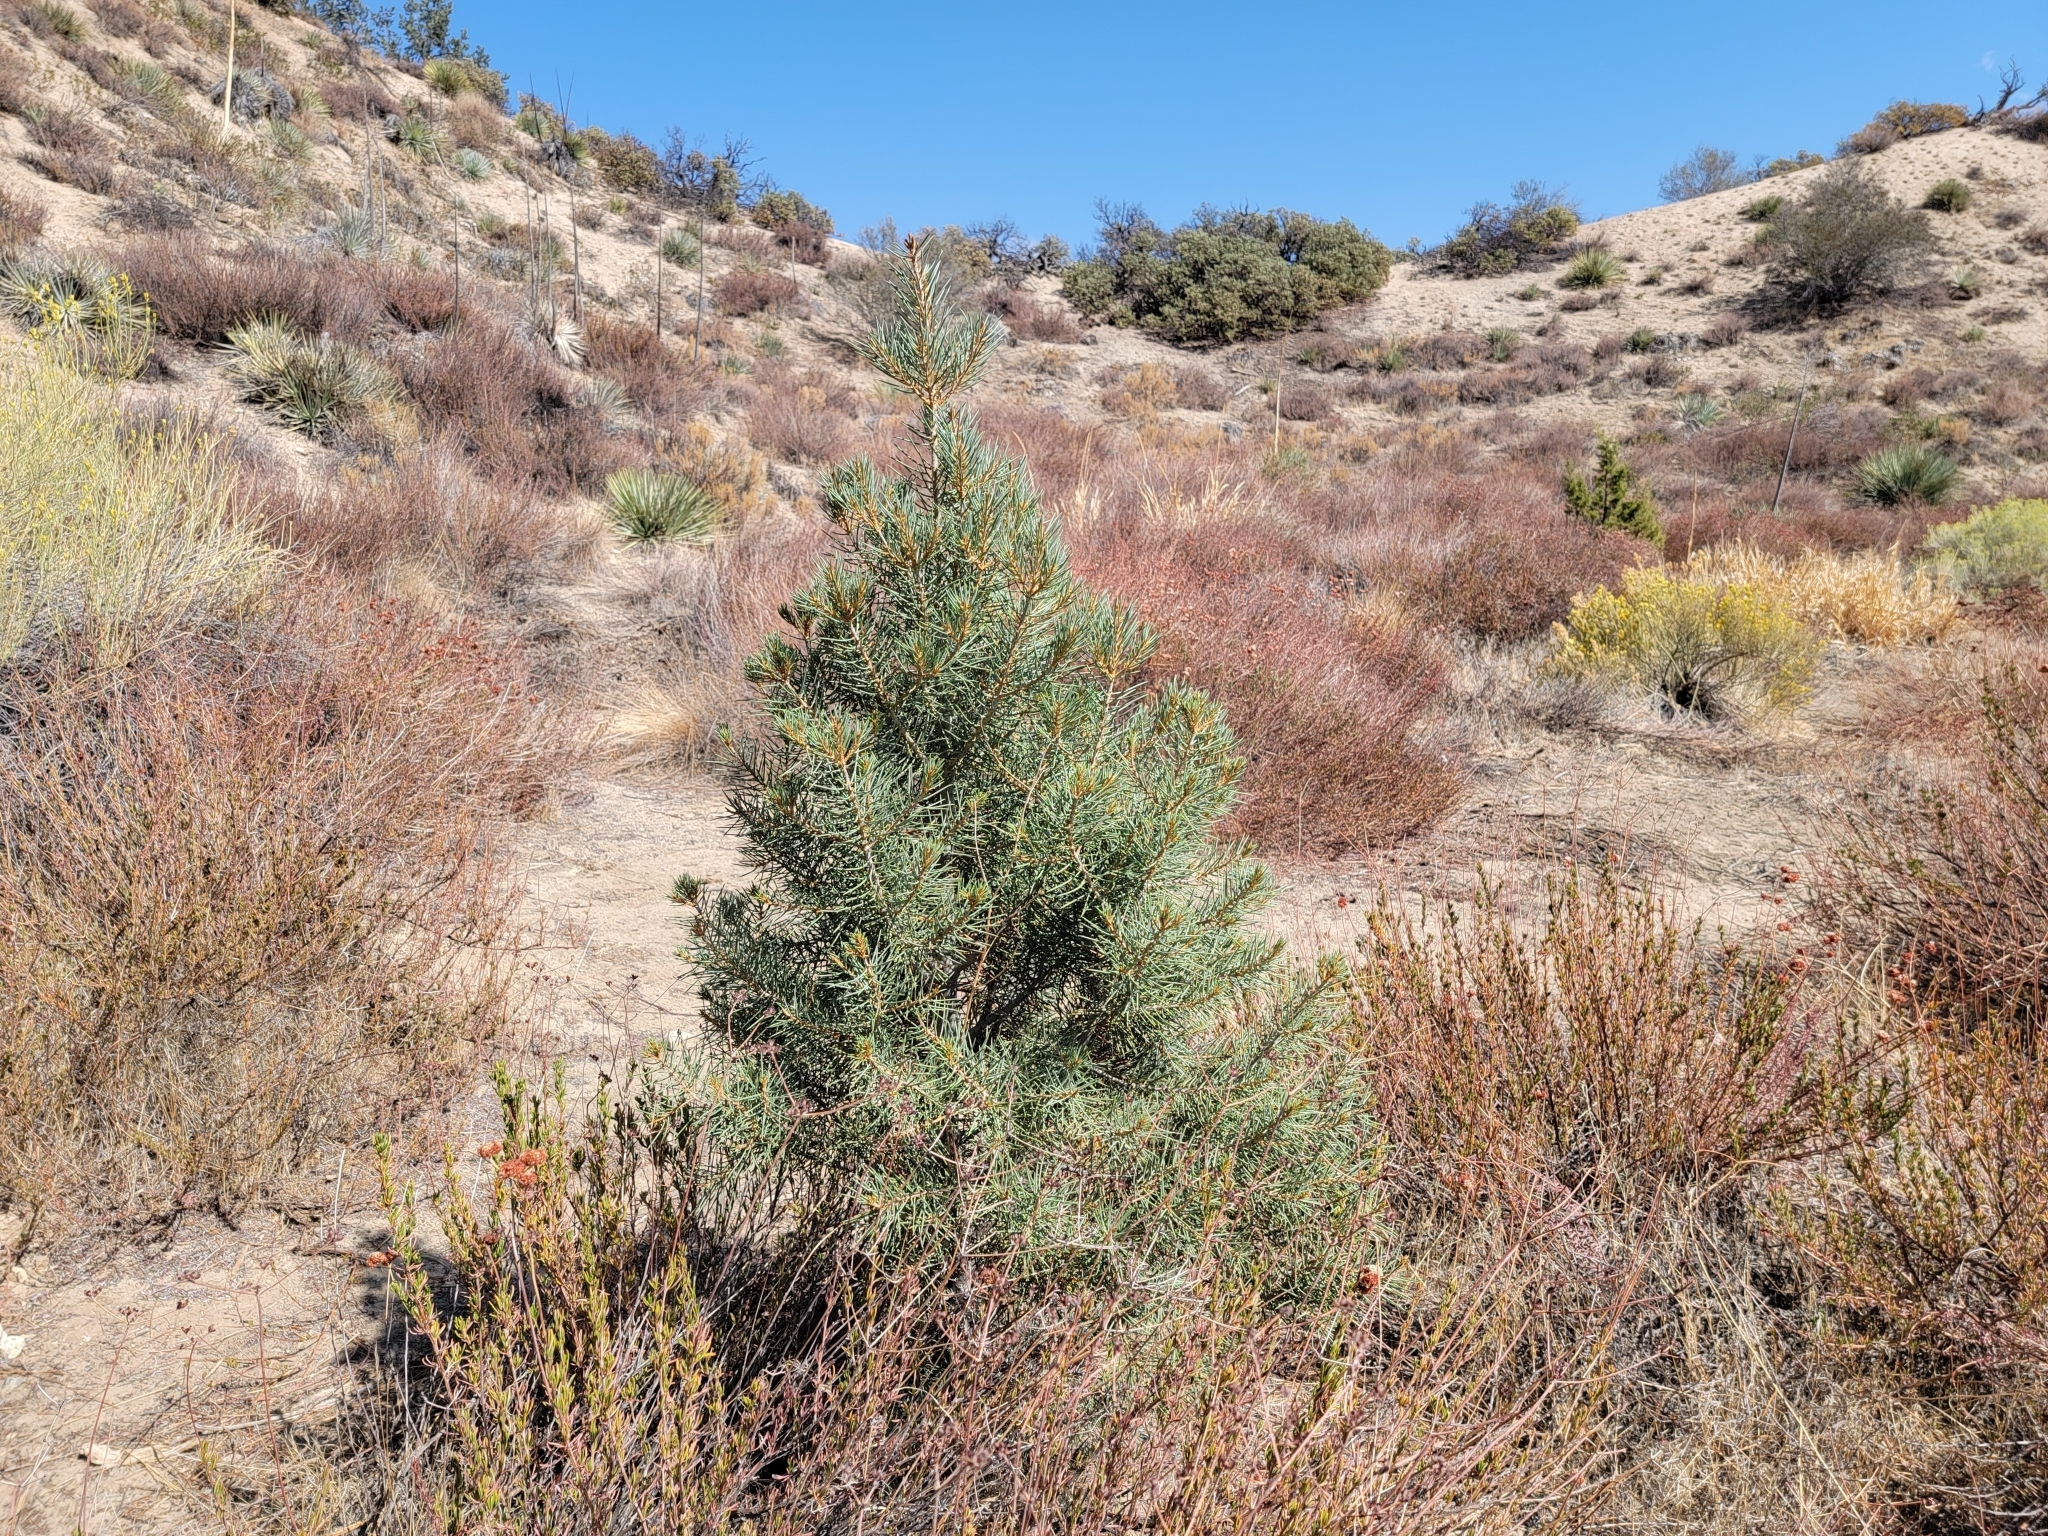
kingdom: Plantae
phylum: Tracheophyta
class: Pinopsida
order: Pinales
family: Pinaceae
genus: Pinus
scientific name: Pinus monophylla
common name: One-leaved nut pine
